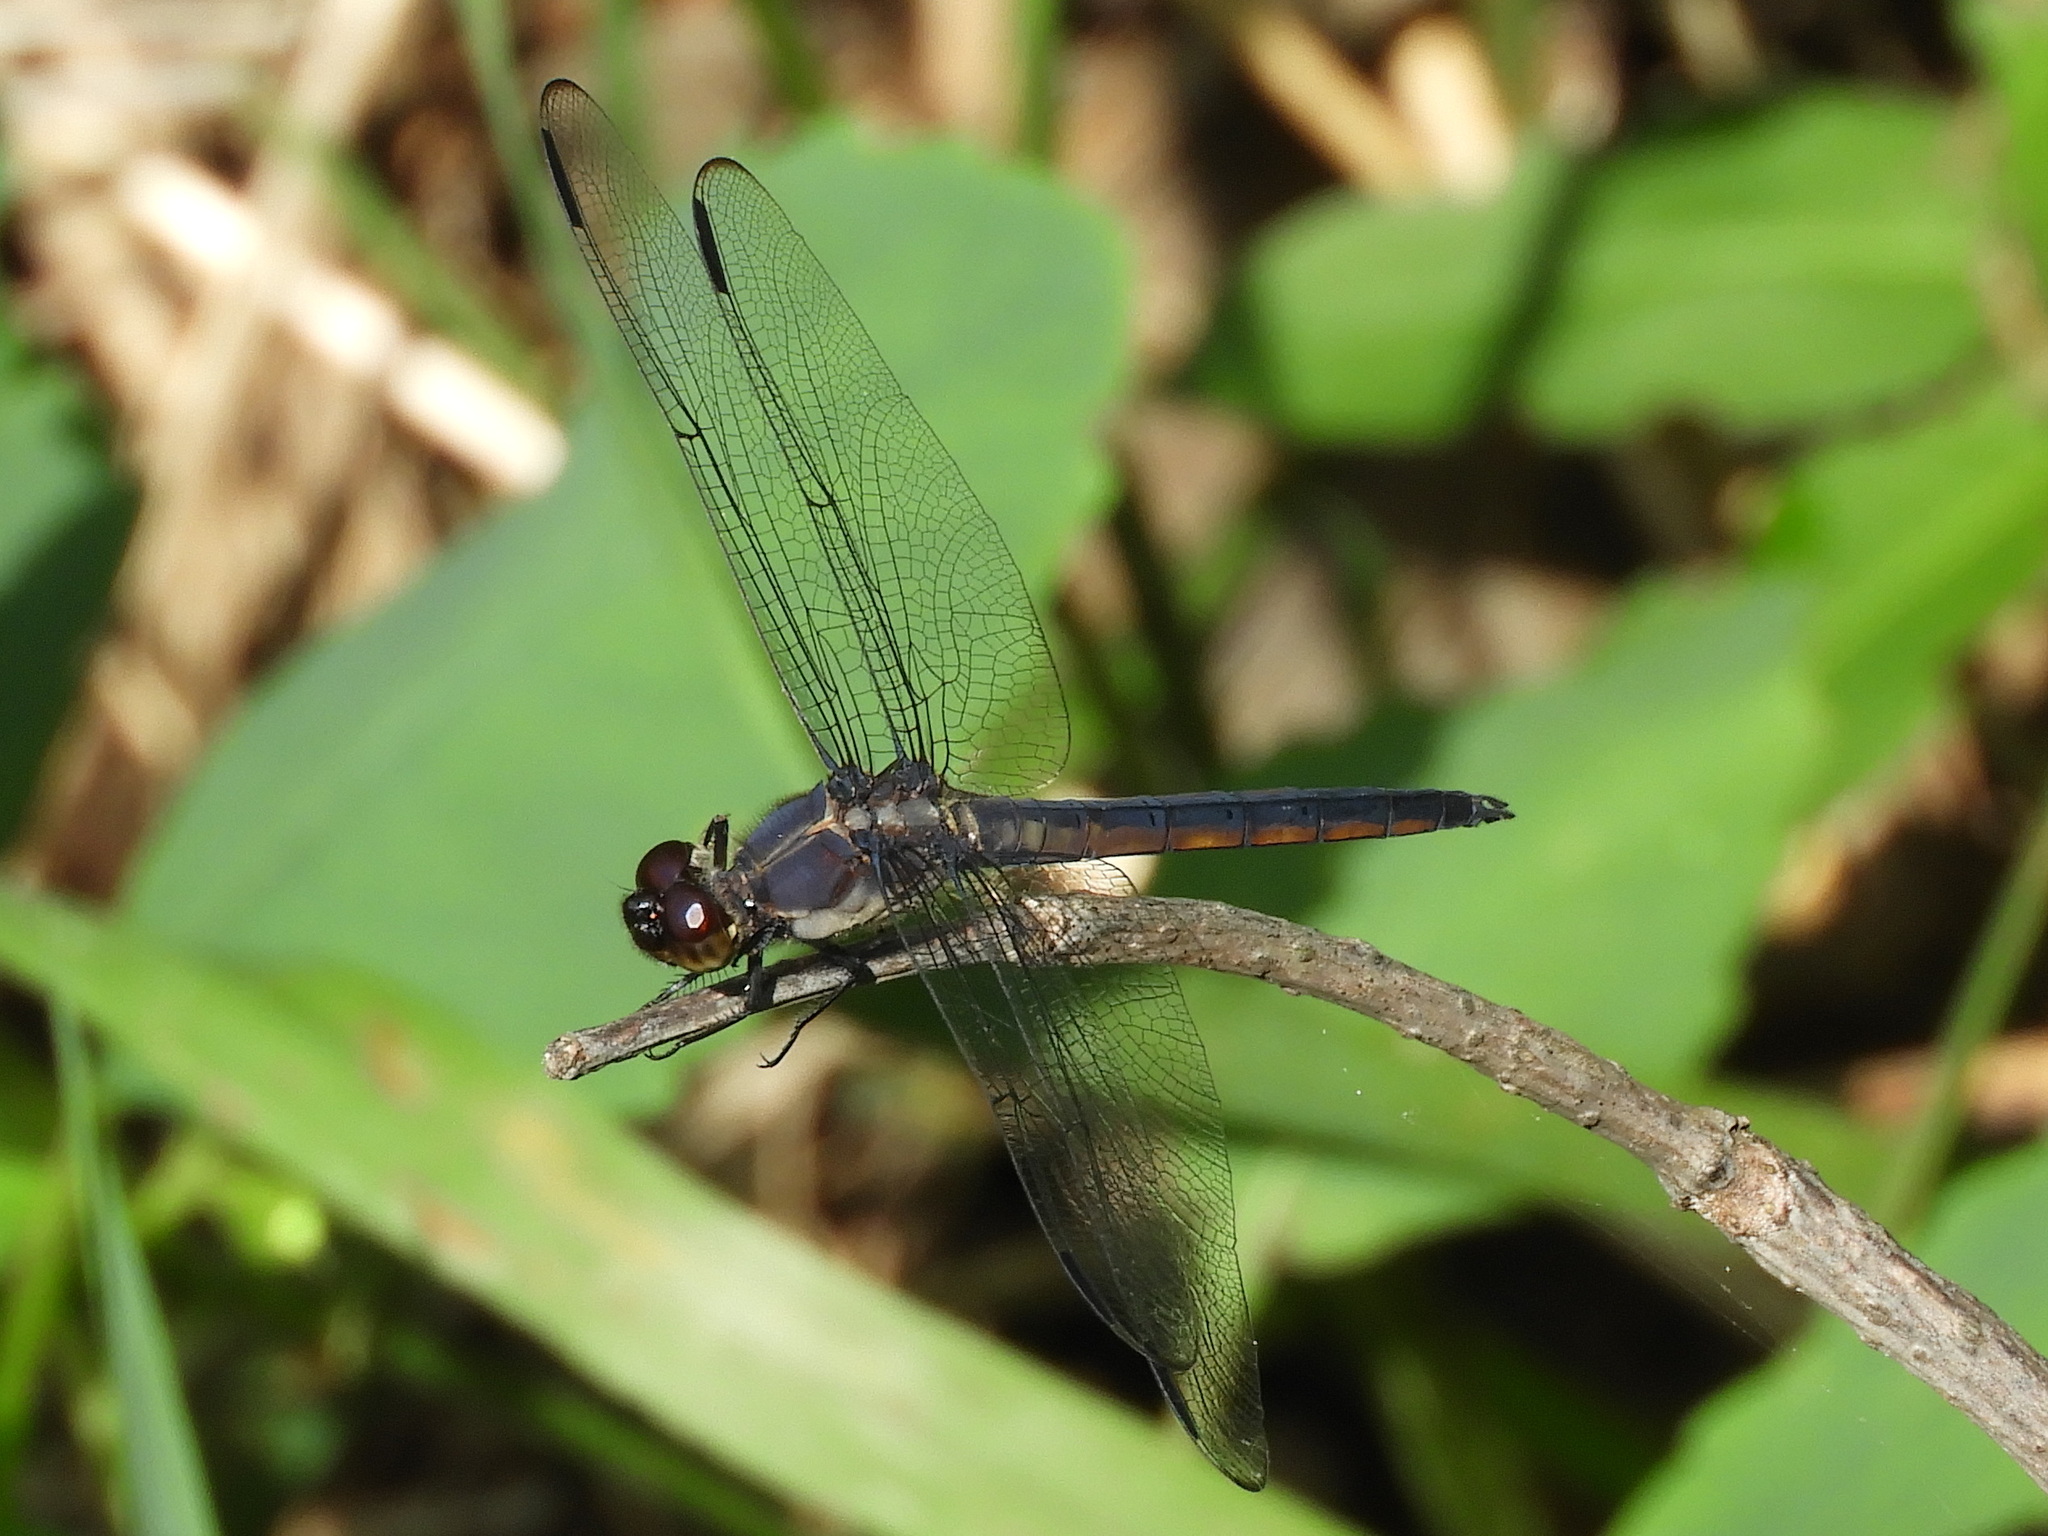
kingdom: Animalia
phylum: Arthropoda
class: Insecta
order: Odonata
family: Libellulidae
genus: Libellula
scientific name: Libellula incesta
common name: Slaty skimmer
